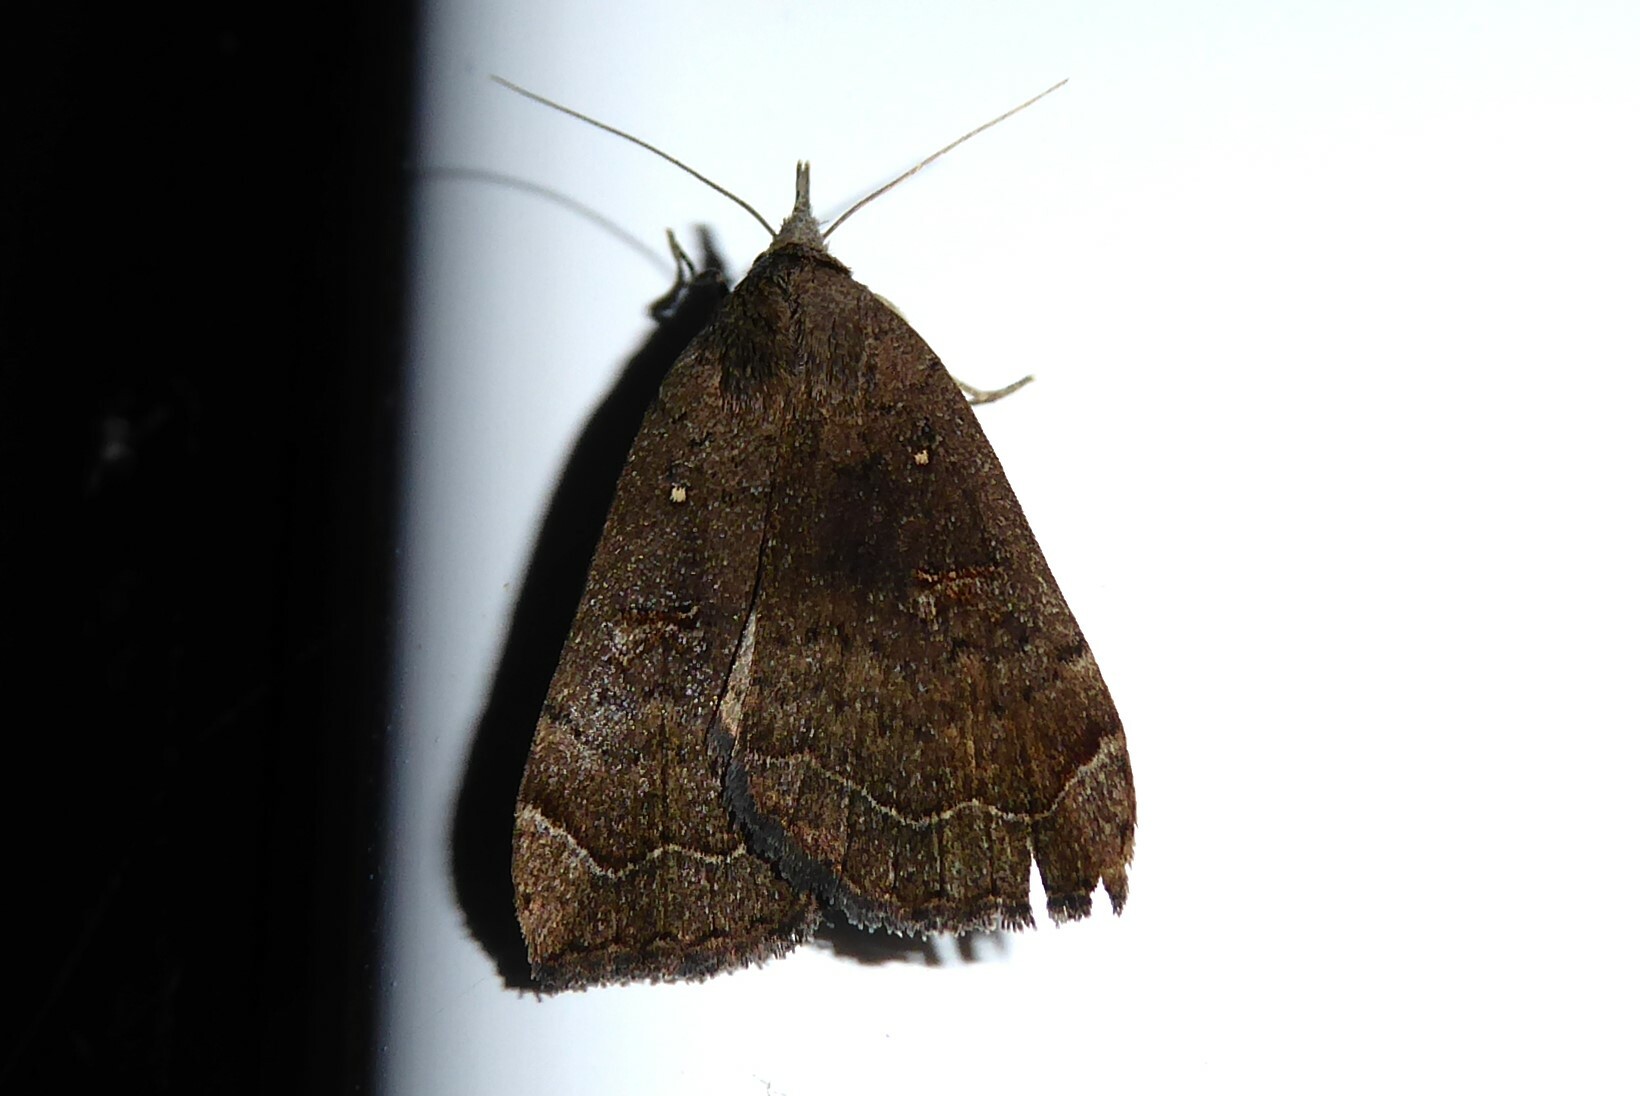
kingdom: Animalia
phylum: Arthropoda
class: Insecta
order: Lepidoptera
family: Erebidae
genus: Rhapsa
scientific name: Rhapsa scotosialis
